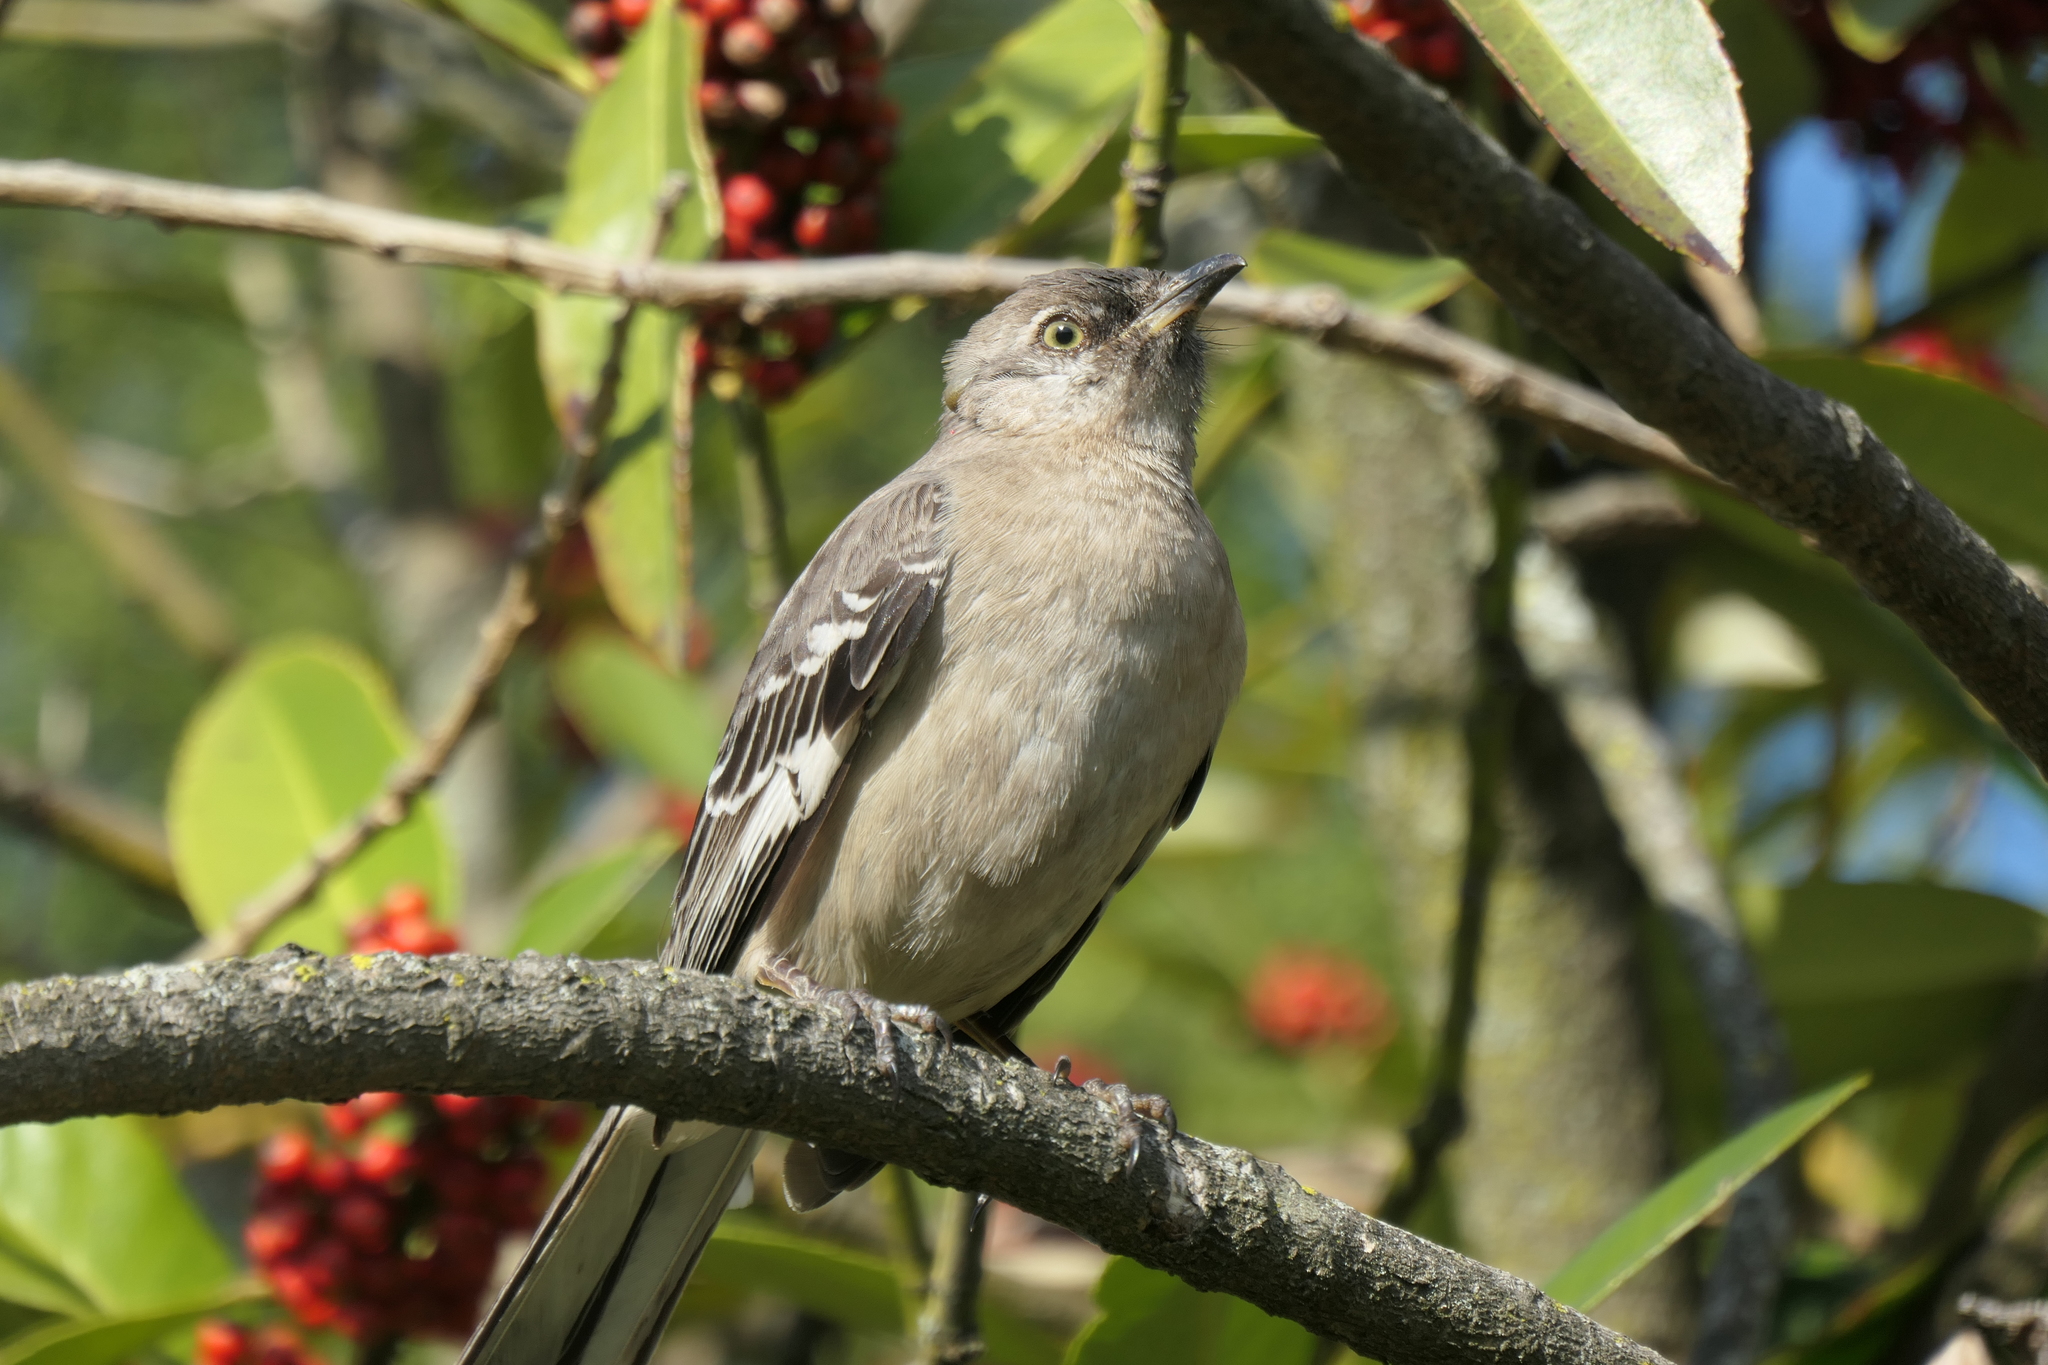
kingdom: Animalia
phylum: Chordata
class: Aves
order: Passeriformes
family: Mimidae
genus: Mimus
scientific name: Mimus polyglottos
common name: Northern mockingbird
